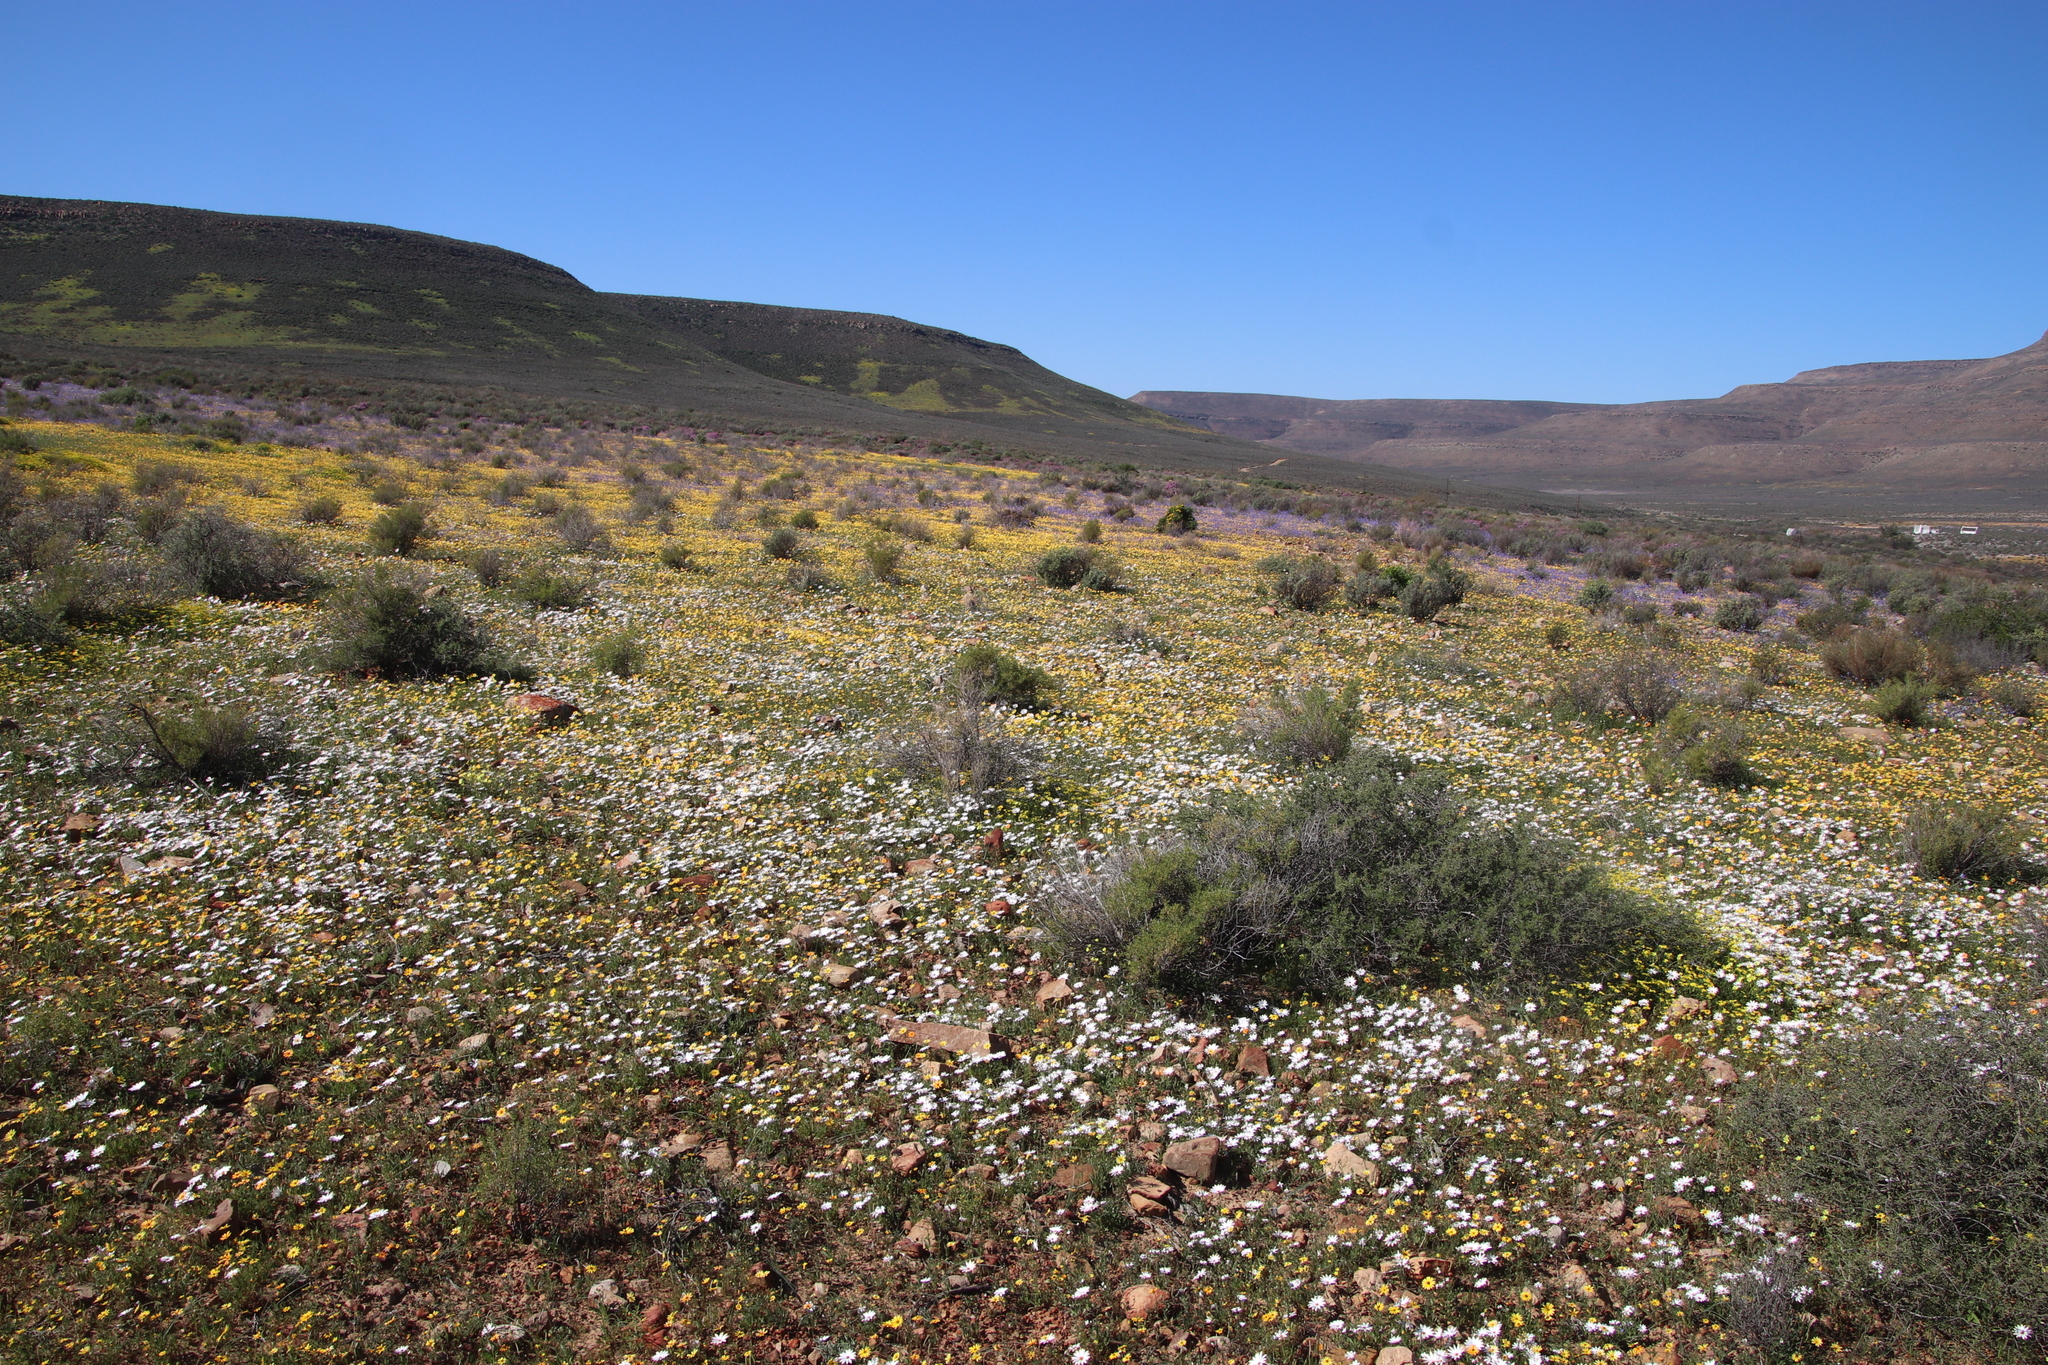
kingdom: Plantae
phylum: Tracheophyta
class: Magnoliopsida
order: Asterales
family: Asteraceae
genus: Dimorphotheca
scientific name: Dimorphotheca pluvialis
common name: Weather prophet
